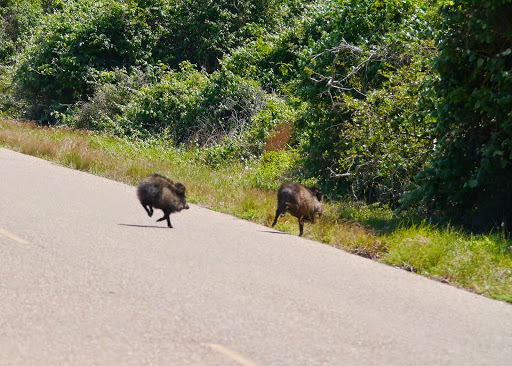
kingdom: Animalia
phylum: Chordata
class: Mammalia
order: Artiodactyla
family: Tayassuidae
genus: Pecari
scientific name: Pecari tajacu
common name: Collared peccary
